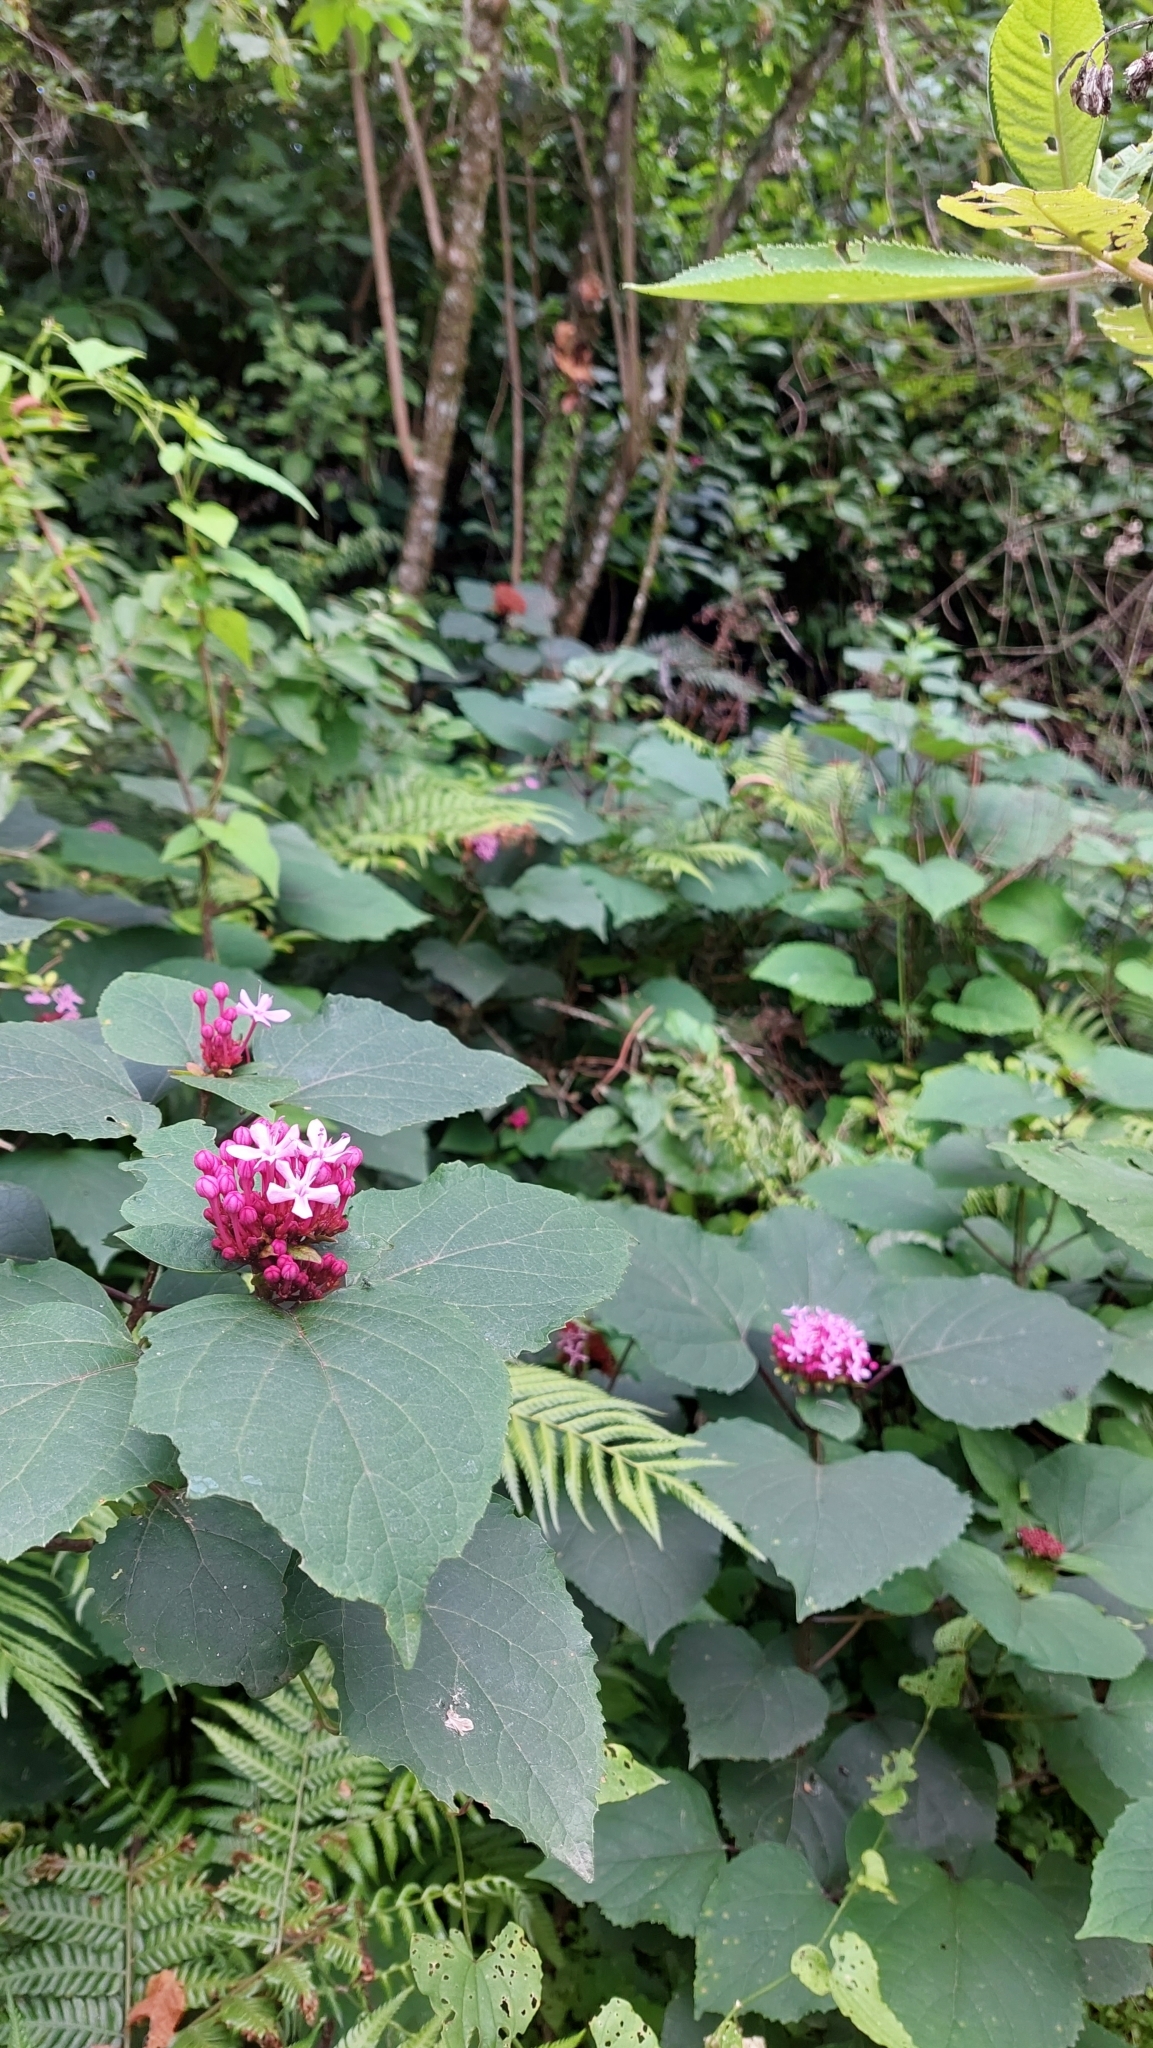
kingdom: Plantae
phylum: Tracheophyta
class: Magnoliopsida
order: Lamiales
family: Lamiaceae
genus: Clerodendrum
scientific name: Clerodendrum bungei
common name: Rose glorybower
